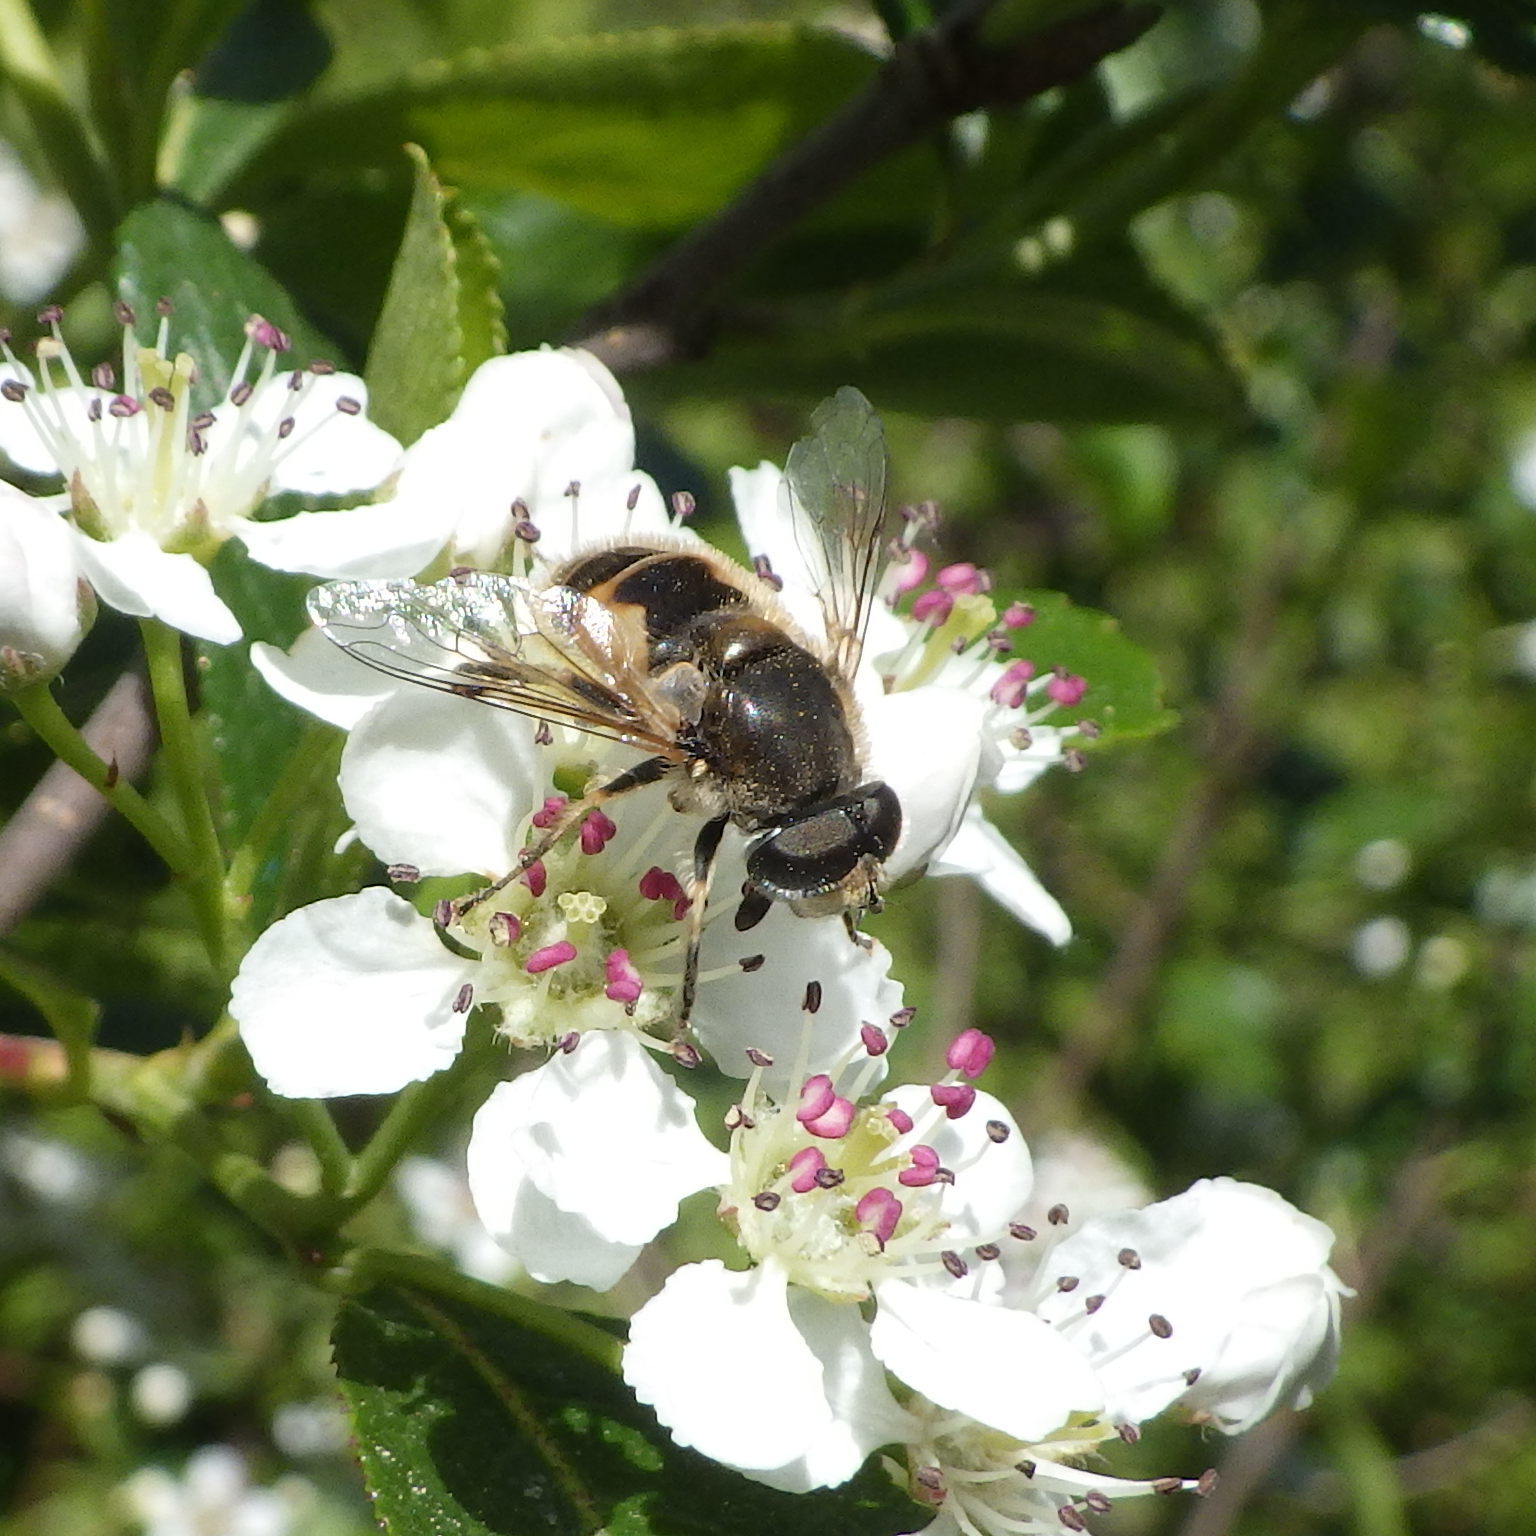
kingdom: Animalia
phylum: Arthropoda
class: Insecta
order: Diptera
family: Syrphidae
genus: Eristalis
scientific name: Eristalis arbustorum
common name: Hover fly
